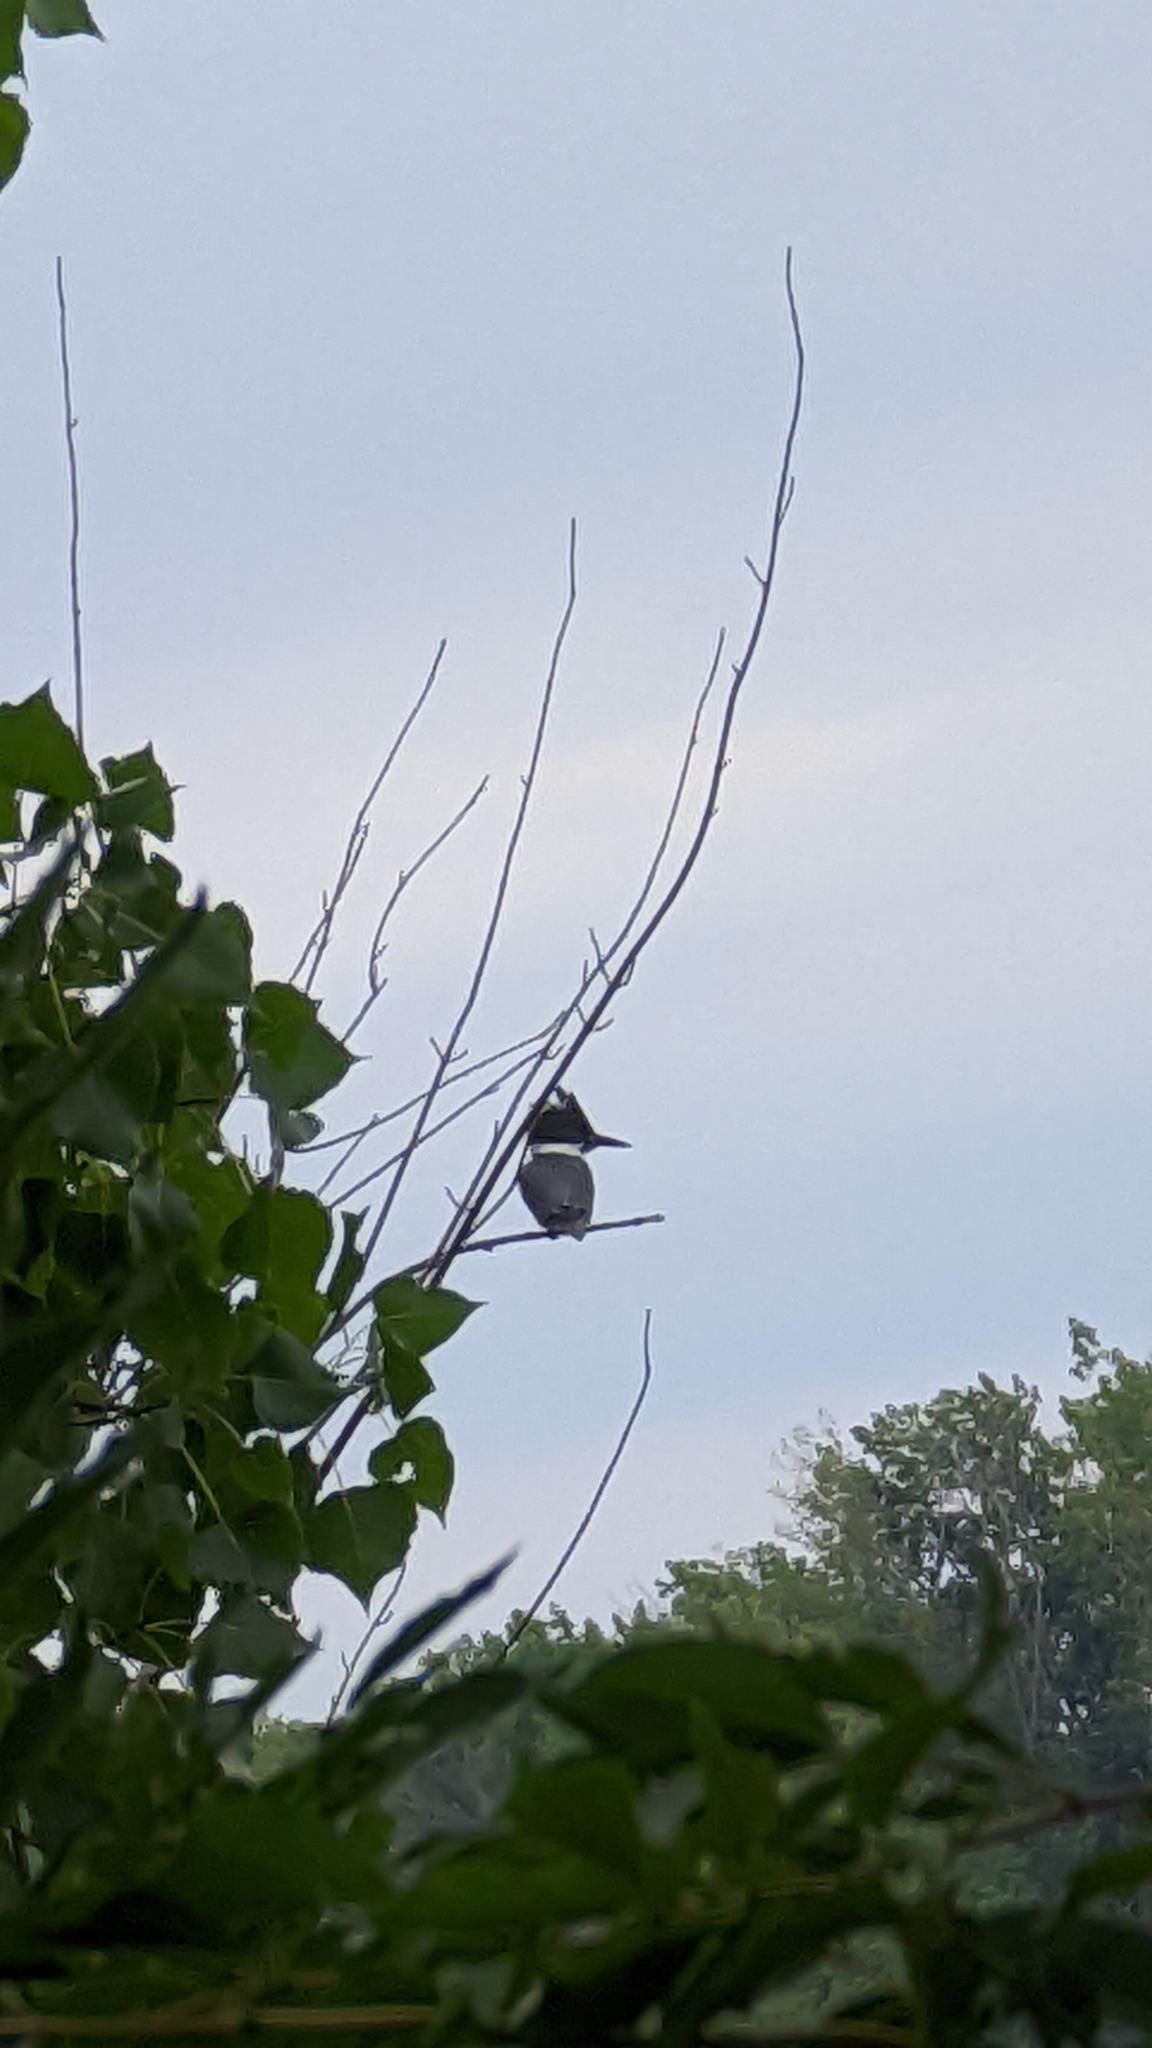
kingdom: Animalia
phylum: Chordata
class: Aves
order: Coraciiformes
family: Alcedinidae
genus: Megaceryle
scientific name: Megaceryle alcyon
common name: Belted kingfisher
